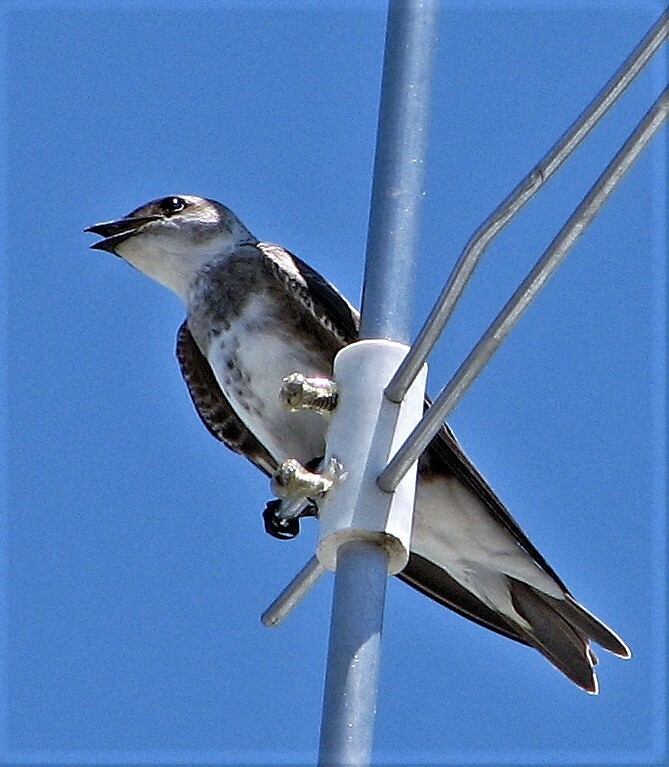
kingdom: Animalia
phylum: Chordata
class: Aves
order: Passeriformes
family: Hirundinidae
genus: Progne
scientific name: Progne tapera
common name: Brown-chested martin
